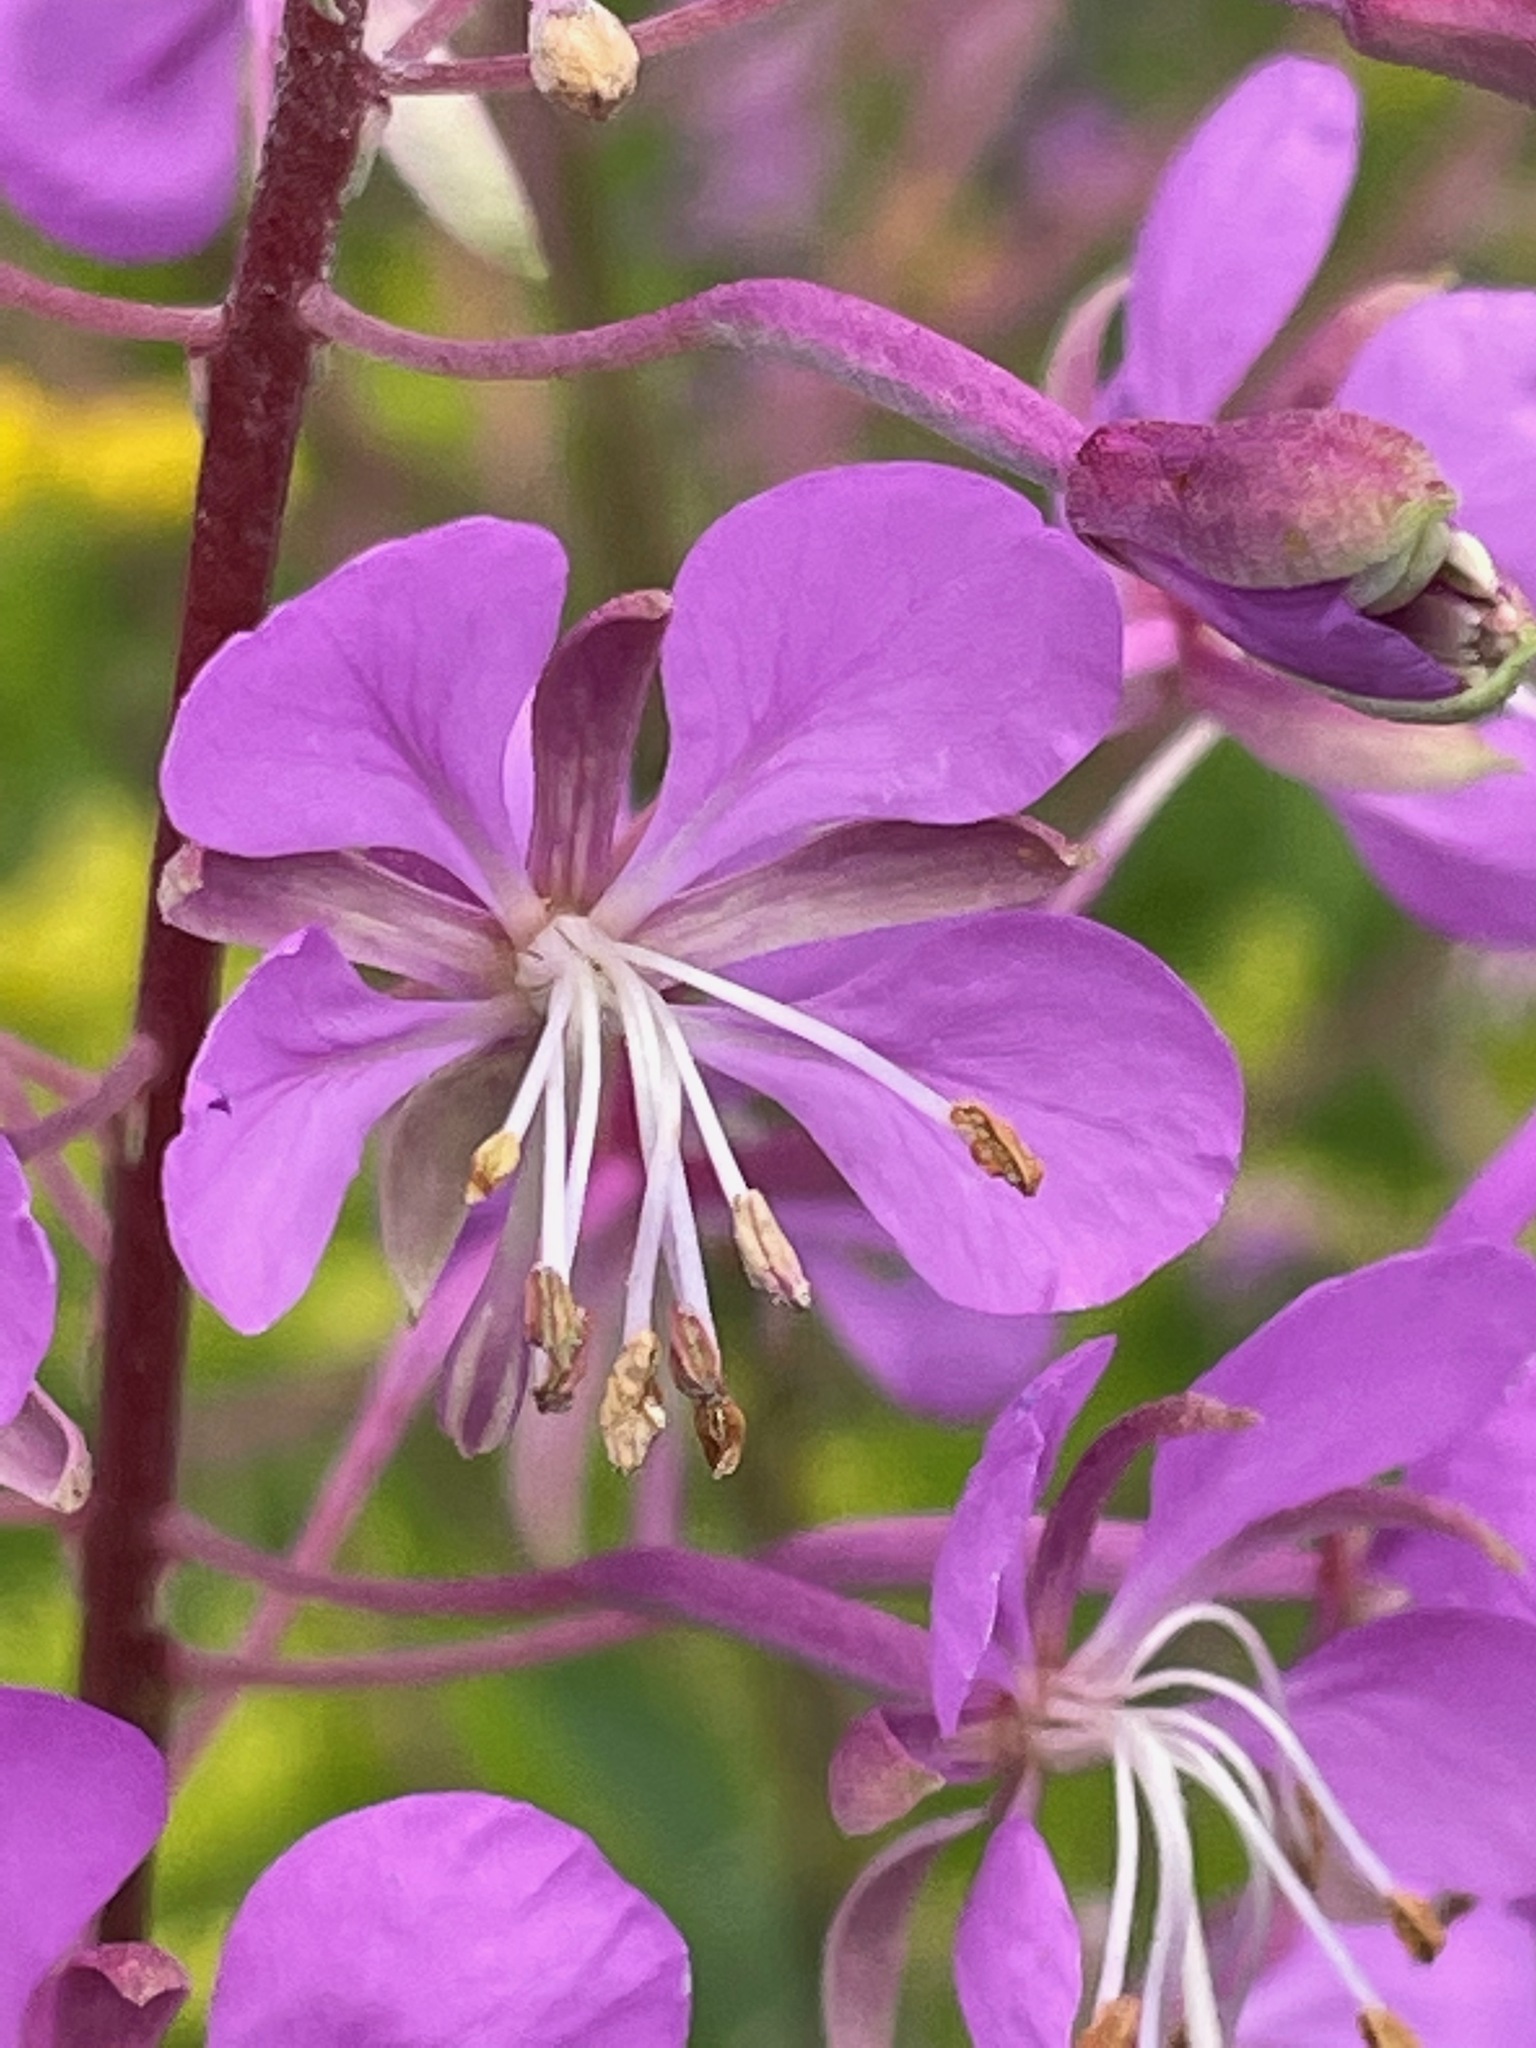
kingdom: Plantae
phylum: Tracheophyta
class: Magnoliopsida
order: Myrtales
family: Onagraceae
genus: Chamaenerion
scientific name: Chamaenerion angustifolium
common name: Fireweed
